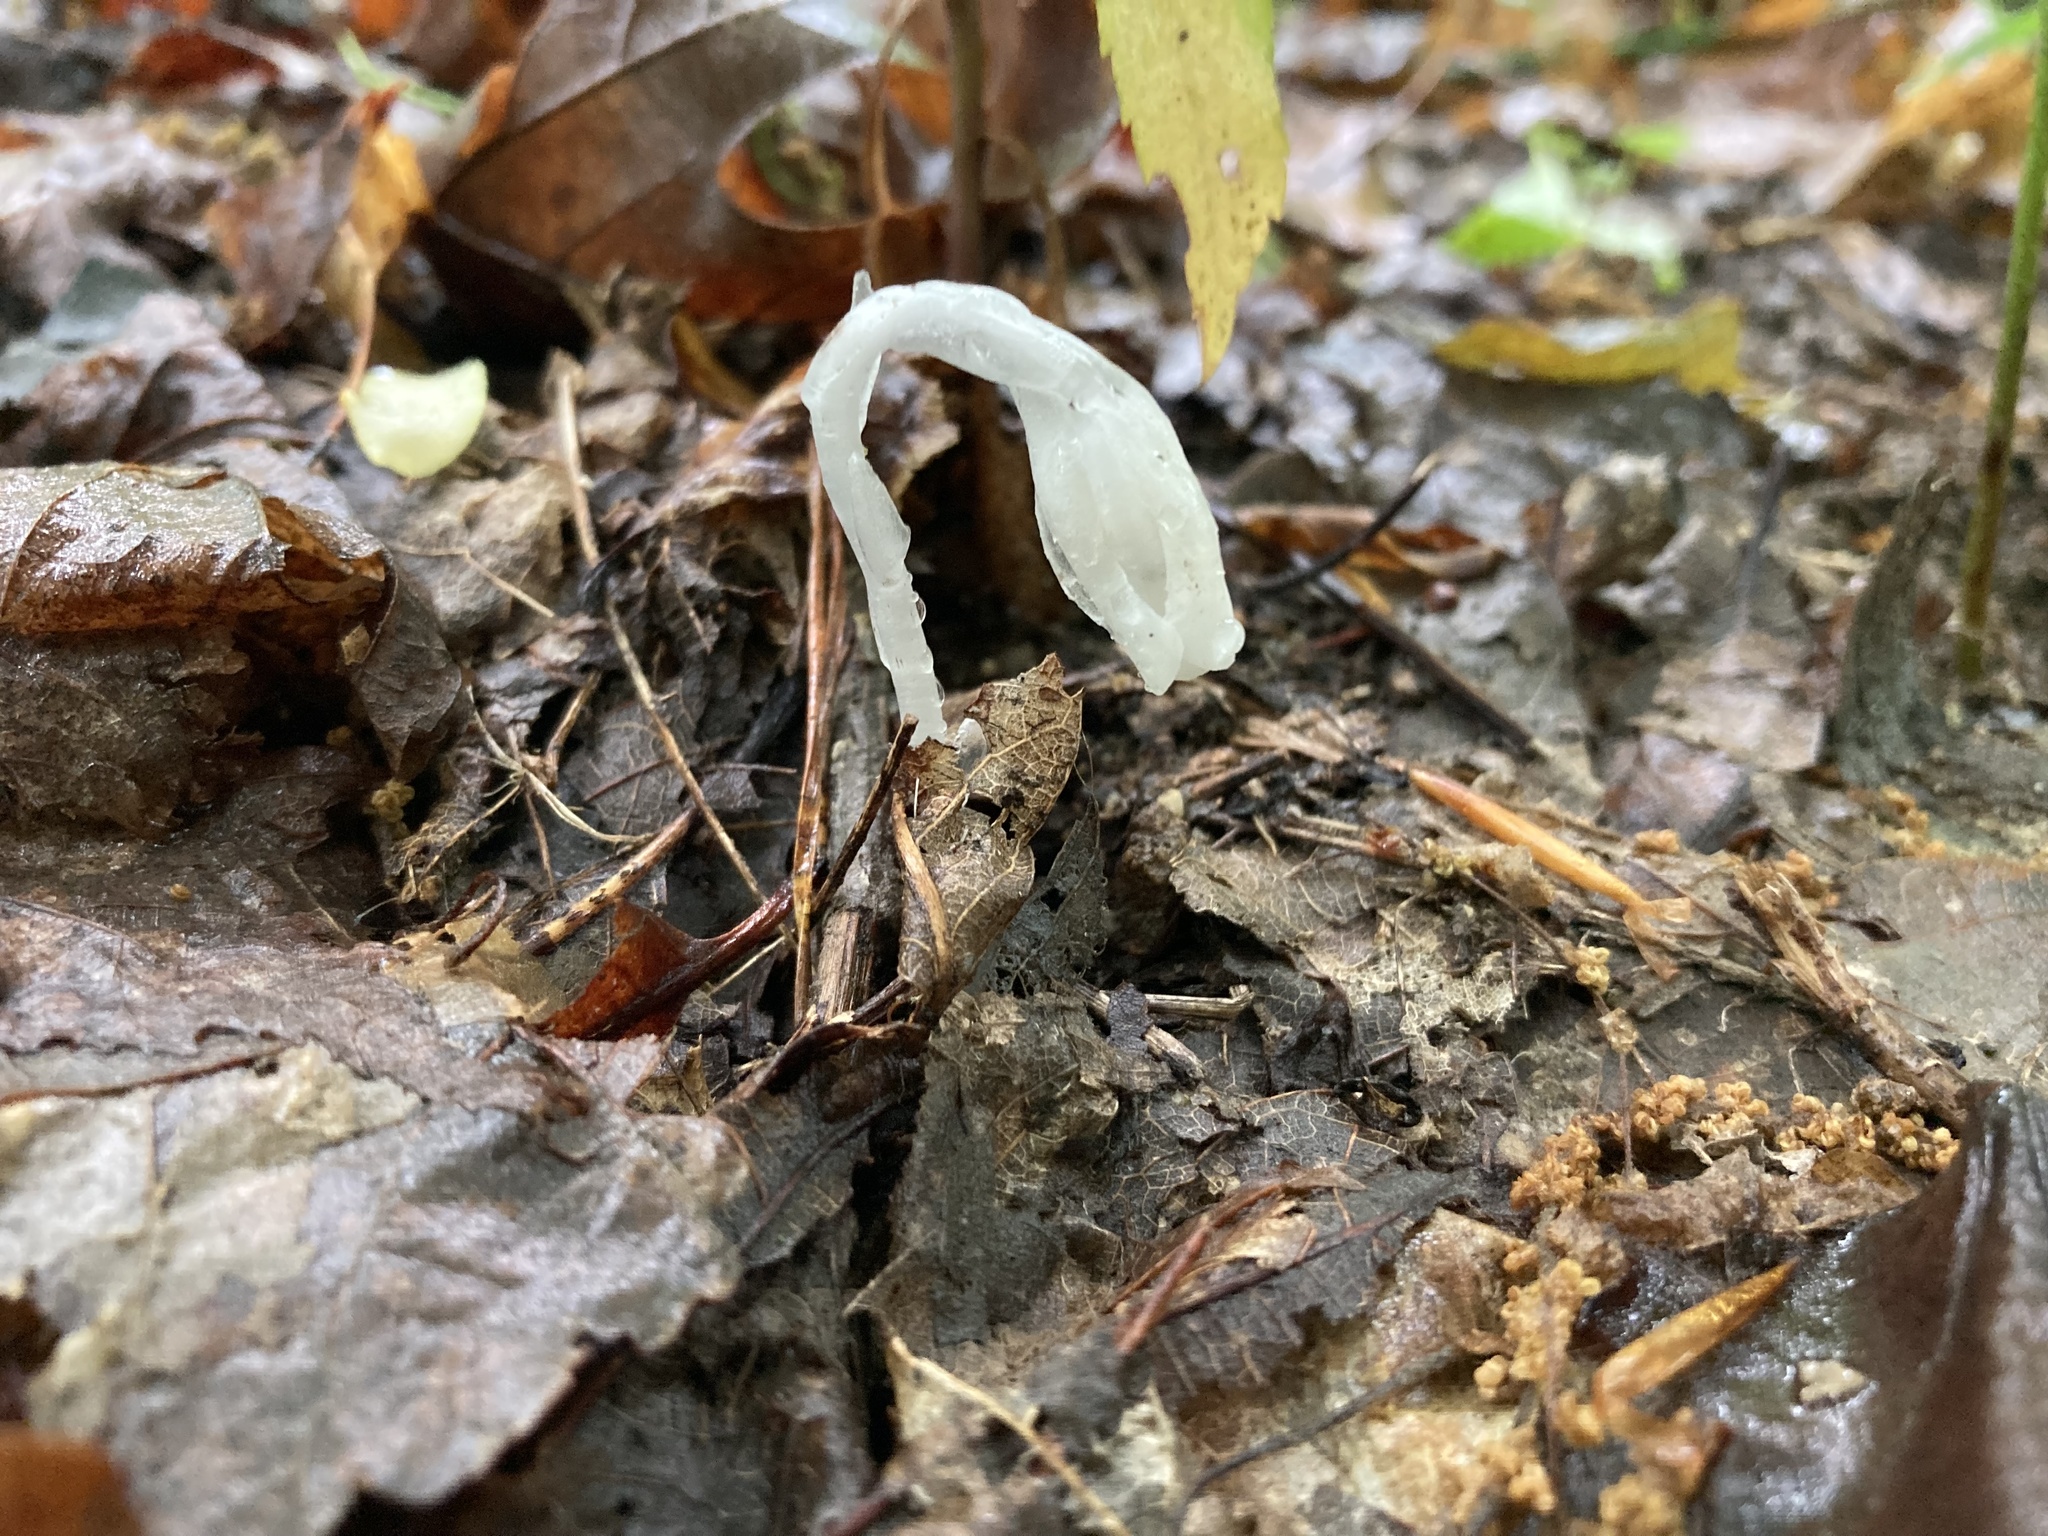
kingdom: Plantae
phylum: Tracheophyta
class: Magnoliopsida
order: Ericales
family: Ericaceae
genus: Monotropa
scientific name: Monotropa uniflora
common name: Convulsion root
